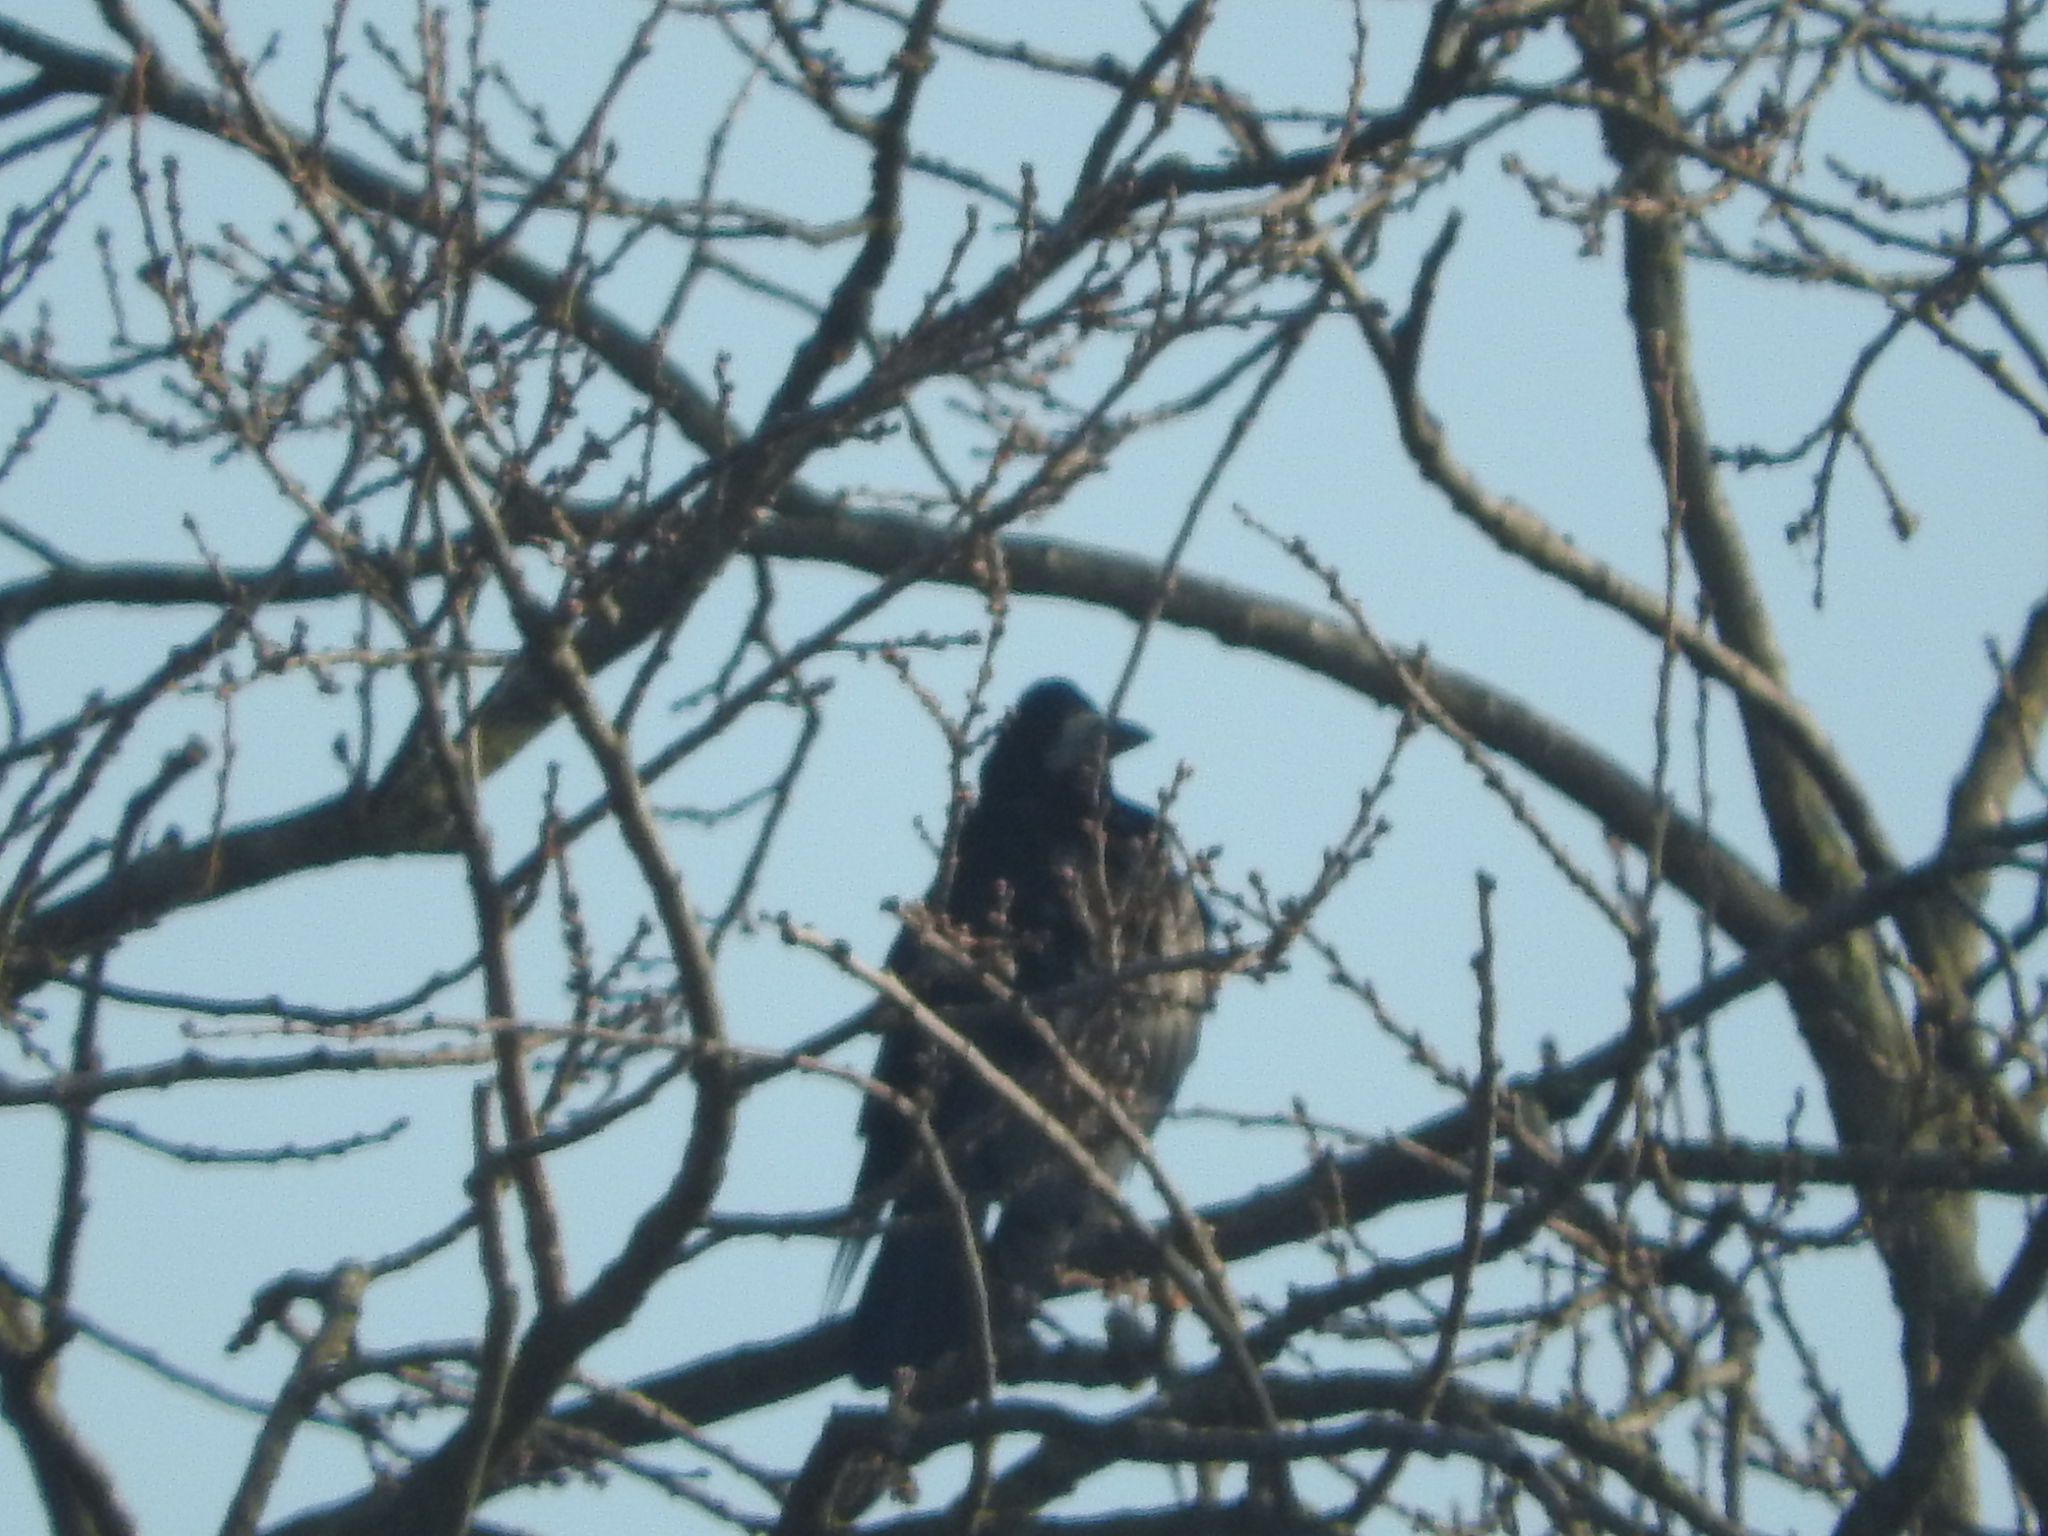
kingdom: Animalia
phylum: Chordata
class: Aves
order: Passeriformes
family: Corvidae
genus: Corvus
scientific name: Corvus frugilegus
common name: Rook
